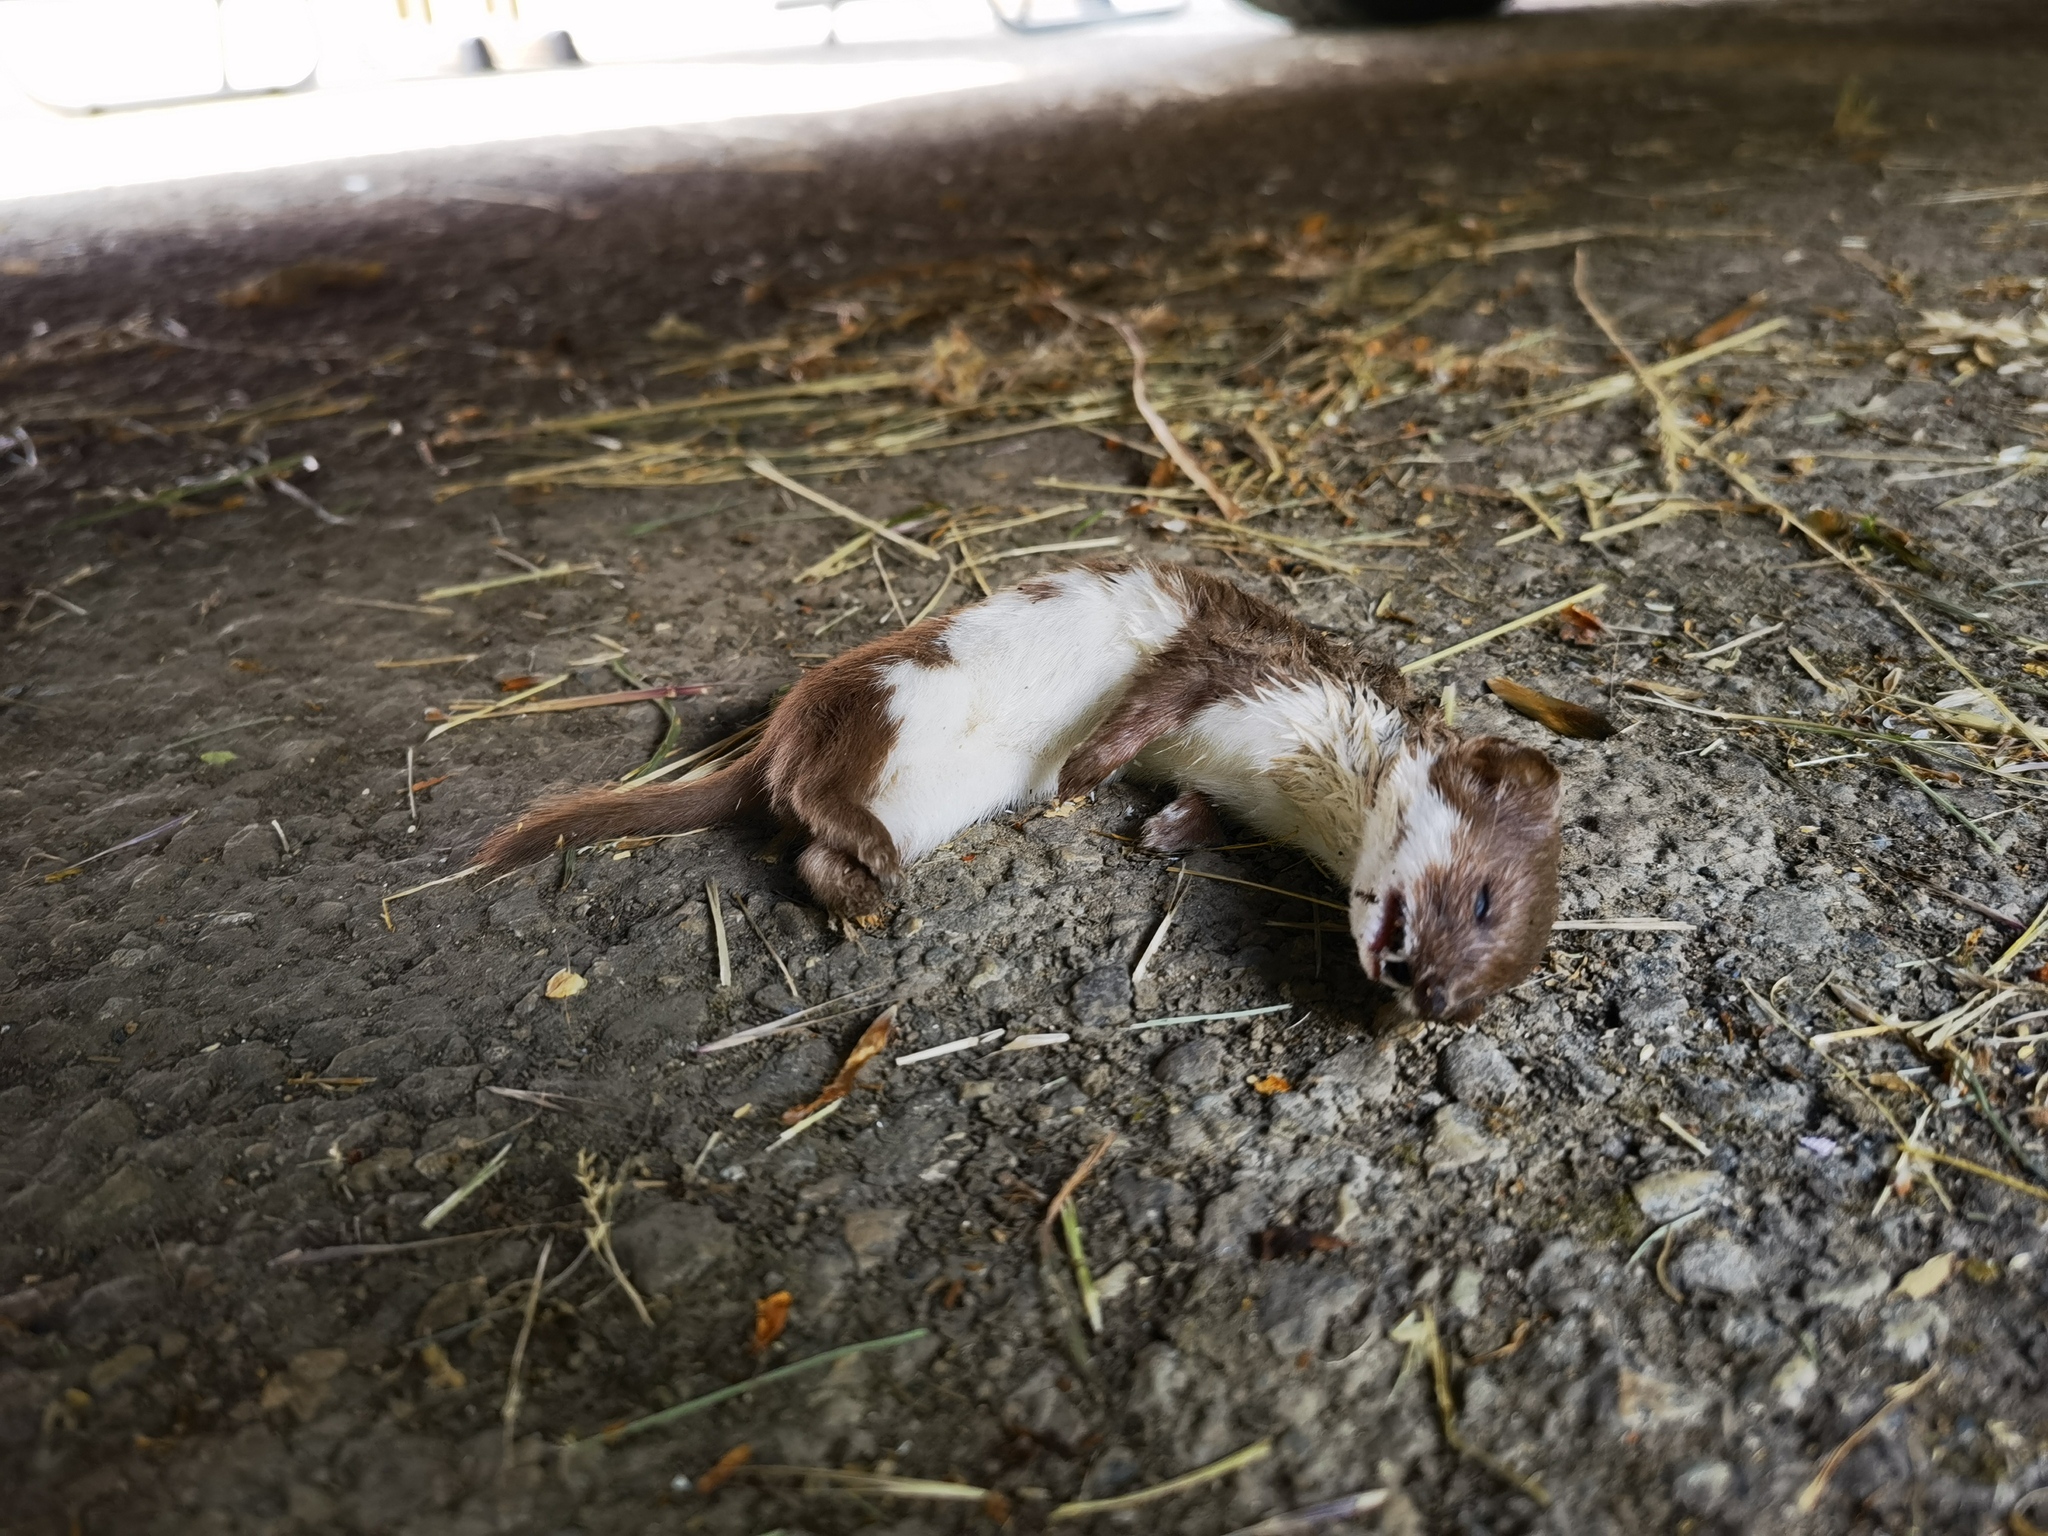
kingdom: Animalia
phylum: Chordata
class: Mammalia
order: Carnivora
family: Mustelidae
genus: Mustela
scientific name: Mustela nivalis
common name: Least weasel
